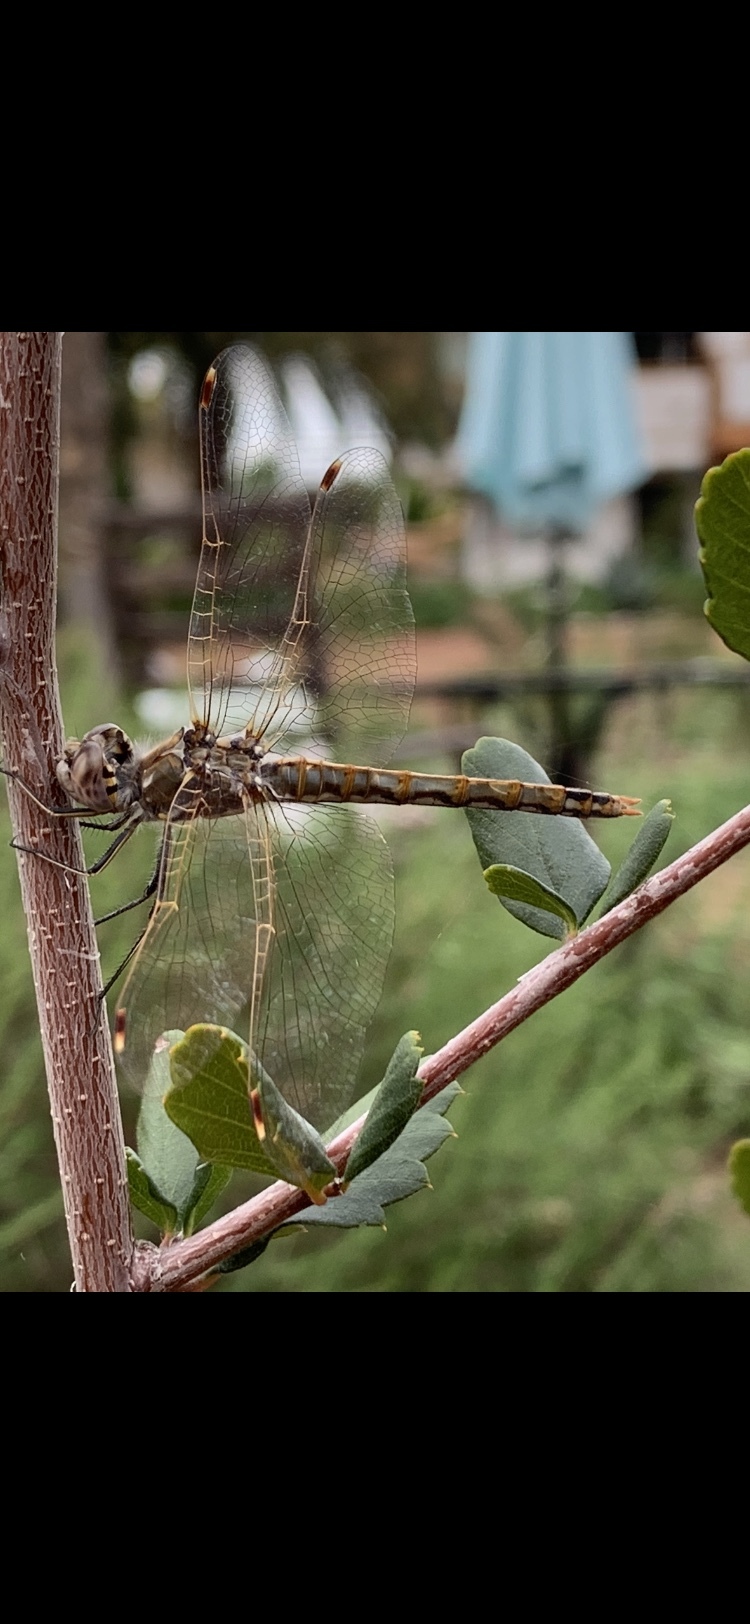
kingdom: Animalia
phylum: Arthropoda
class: Insecta
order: Odonata
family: Libellulidae
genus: Sympetrum
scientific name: Sympetrum corruptum
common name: Variegated meadowhawk
